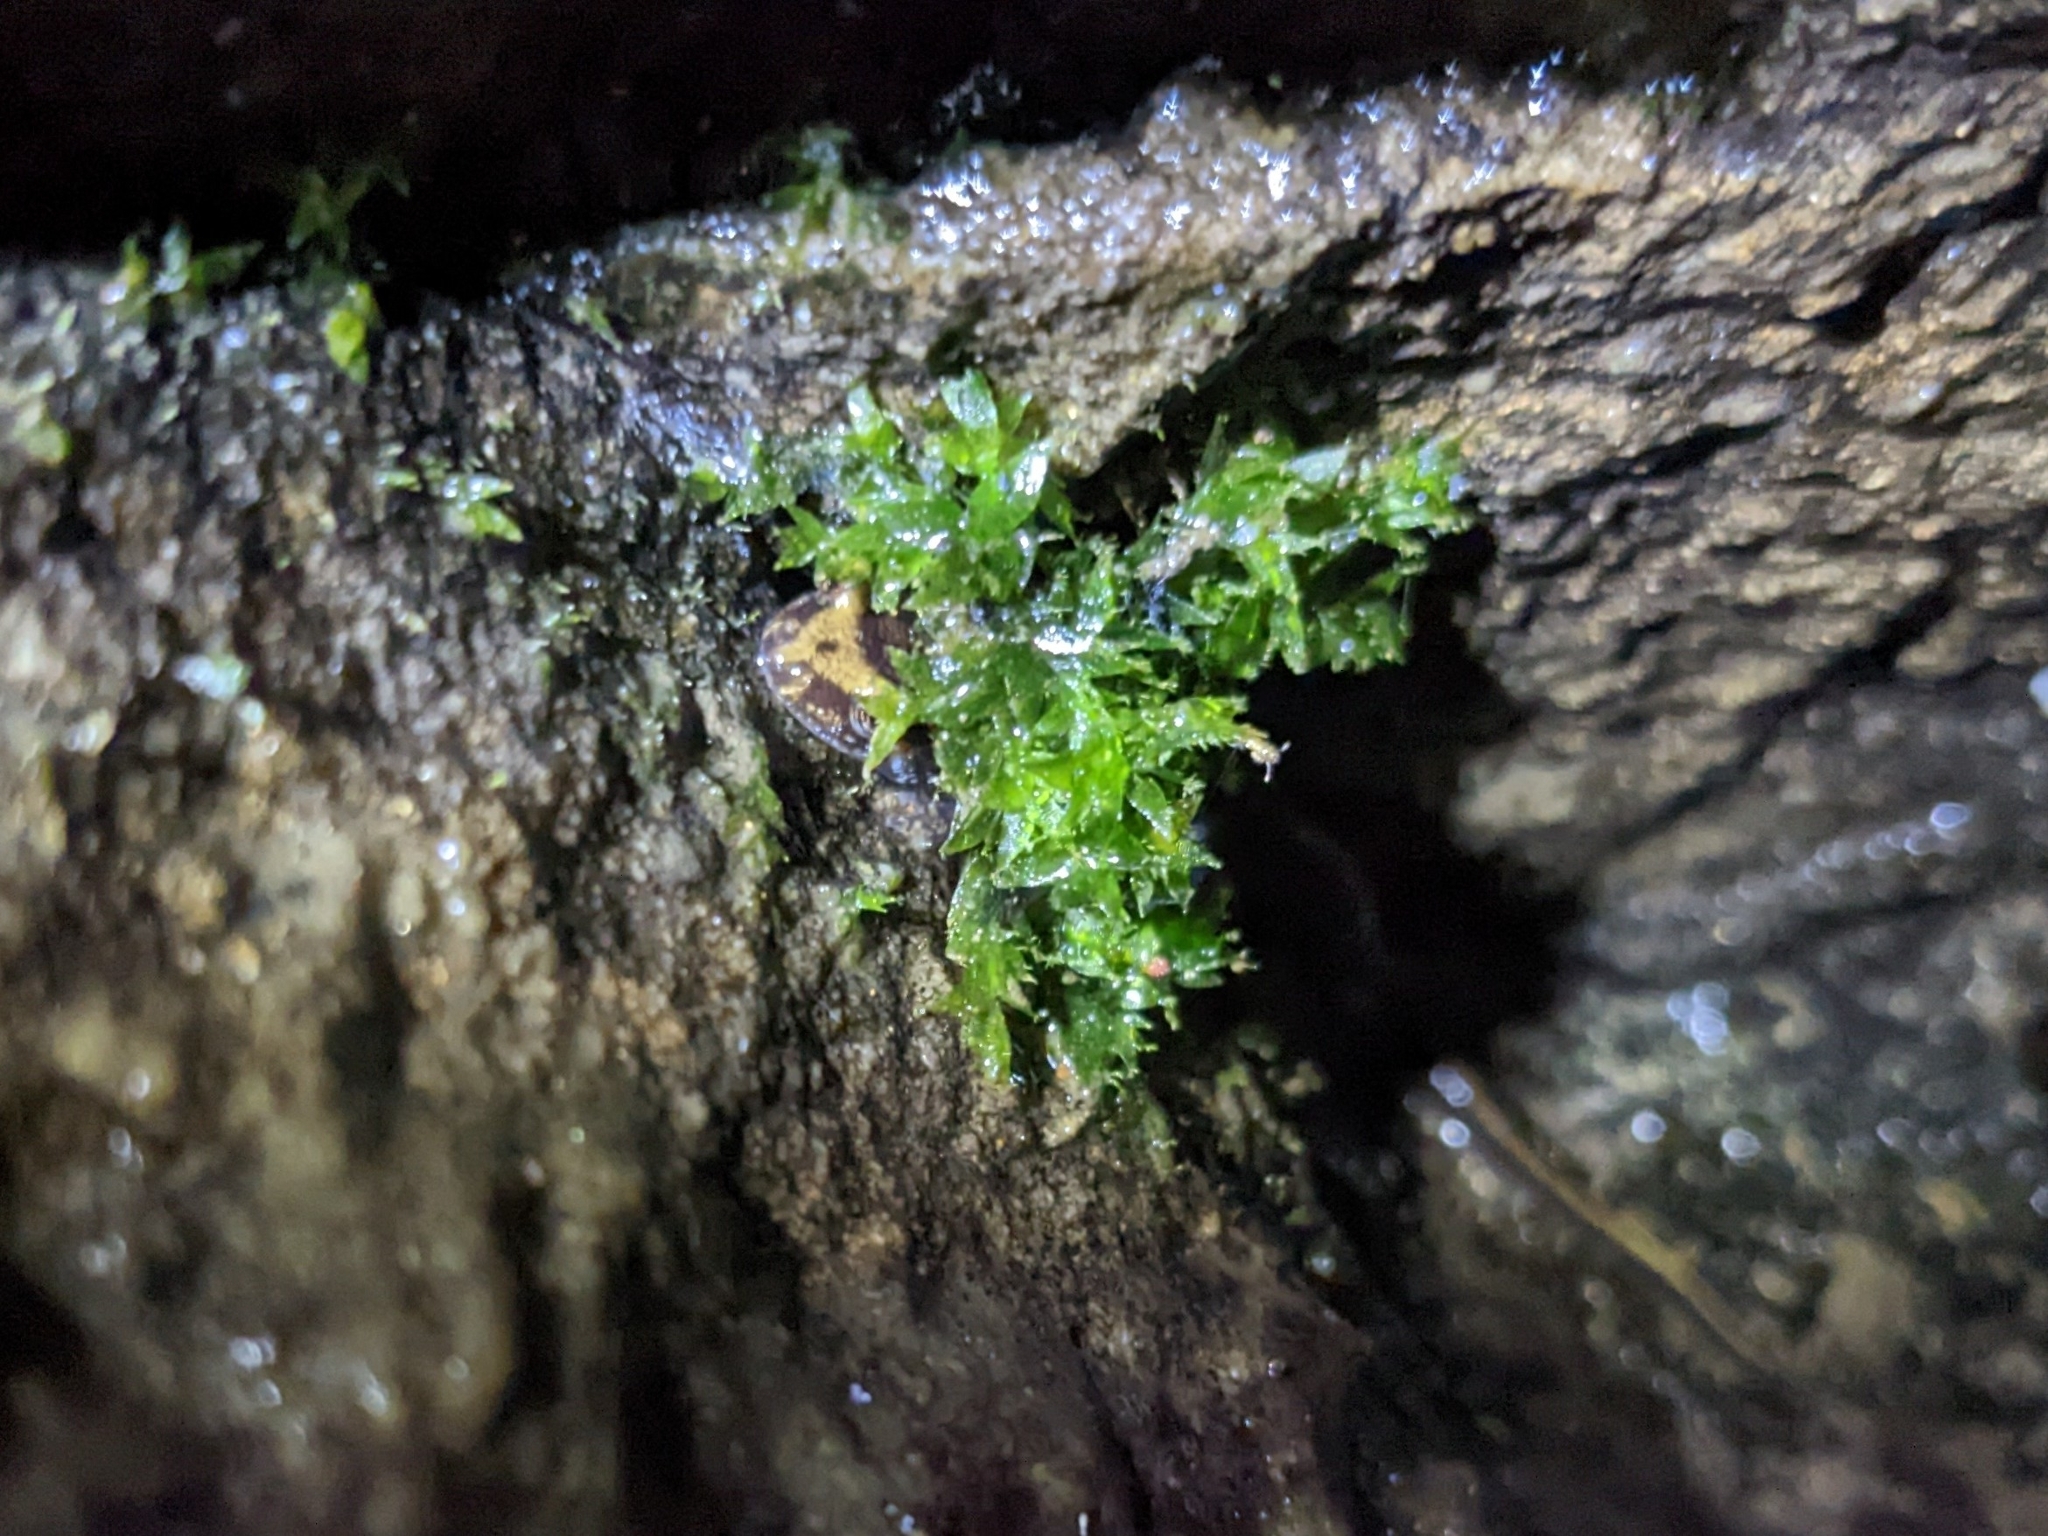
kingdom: Animalia
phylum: Chordata
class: Amphibia
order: Caudata
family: Plethodontidae
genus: Desmognathus
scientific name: Desmognathus ochrophaeus
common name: Allegheny mountain dusky salamander
